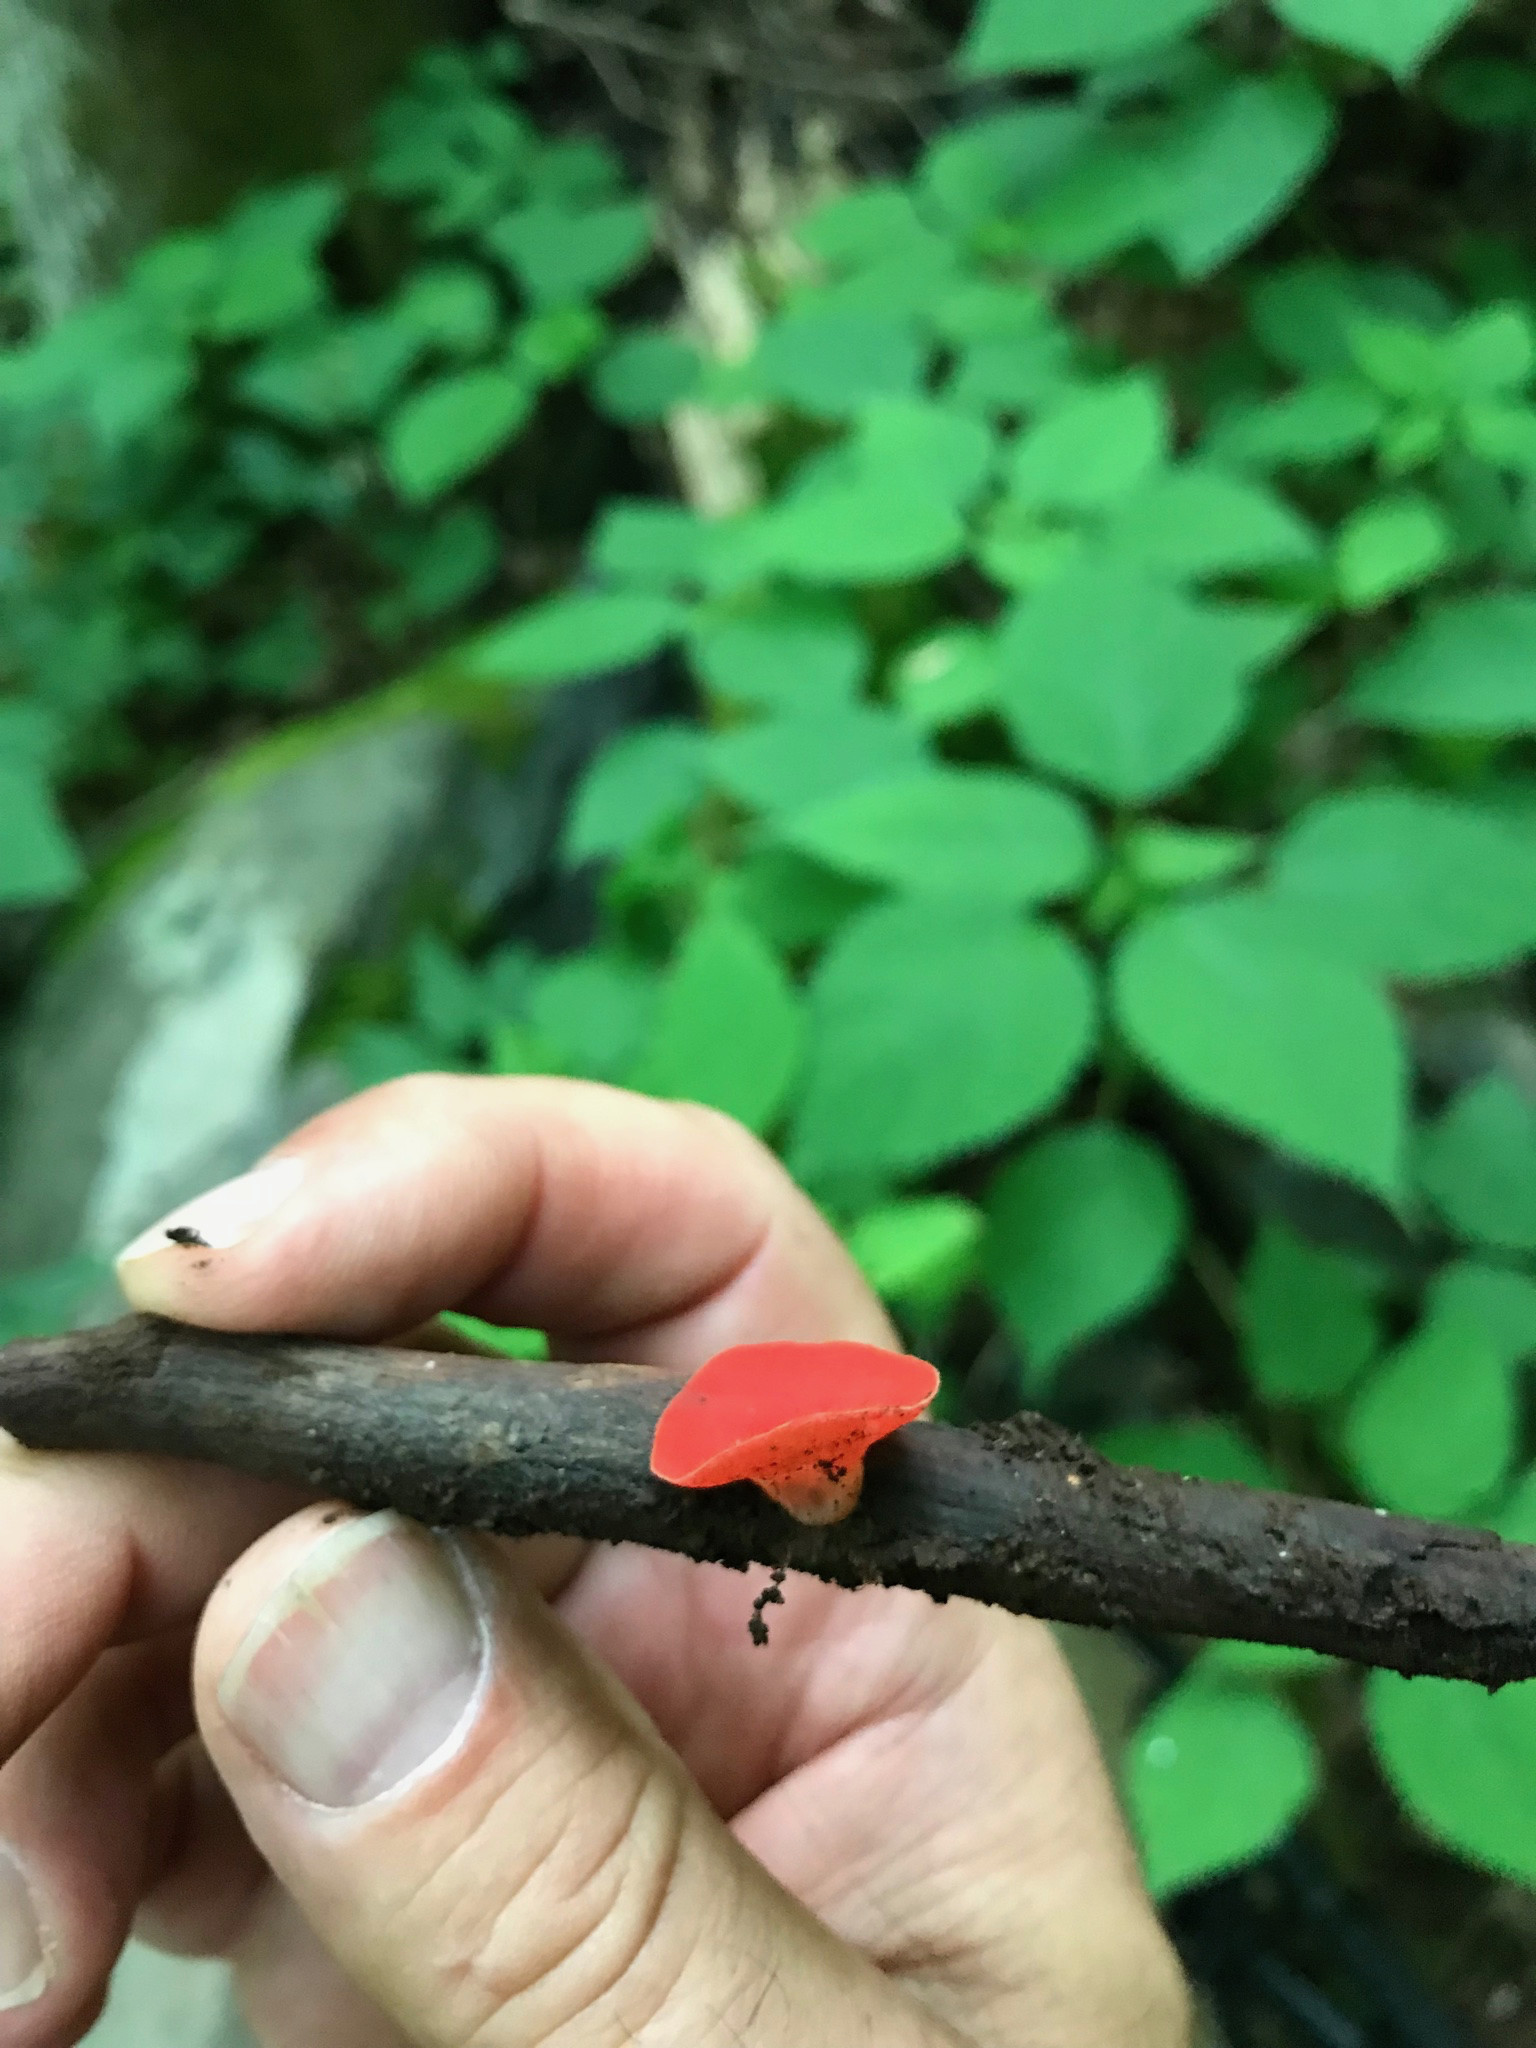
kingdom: Fungi
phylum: Ascomycota
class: Pezizomycetes
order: Pezizales
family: Sarcoscyphaceae
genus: Sarcoscypha
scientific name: Sarcoscypha occidentalis
